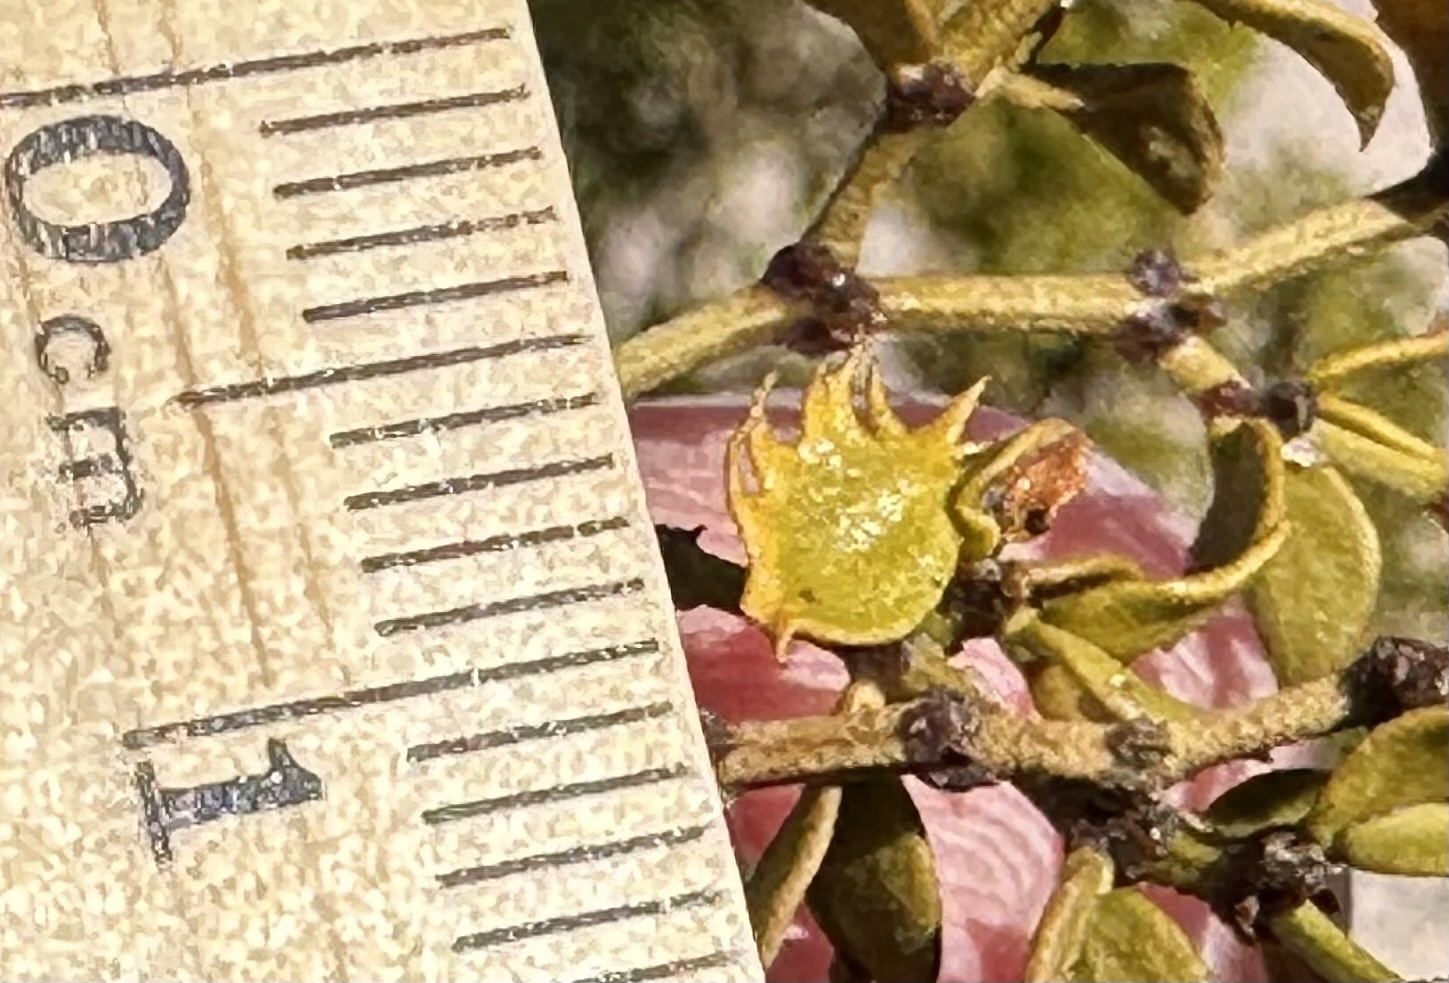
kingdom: Animalia
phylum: Arthropoda
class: Insecta
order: Diptera
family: Cecidomyiidae
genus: Asphondylia
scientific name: Asphondylia digitata
